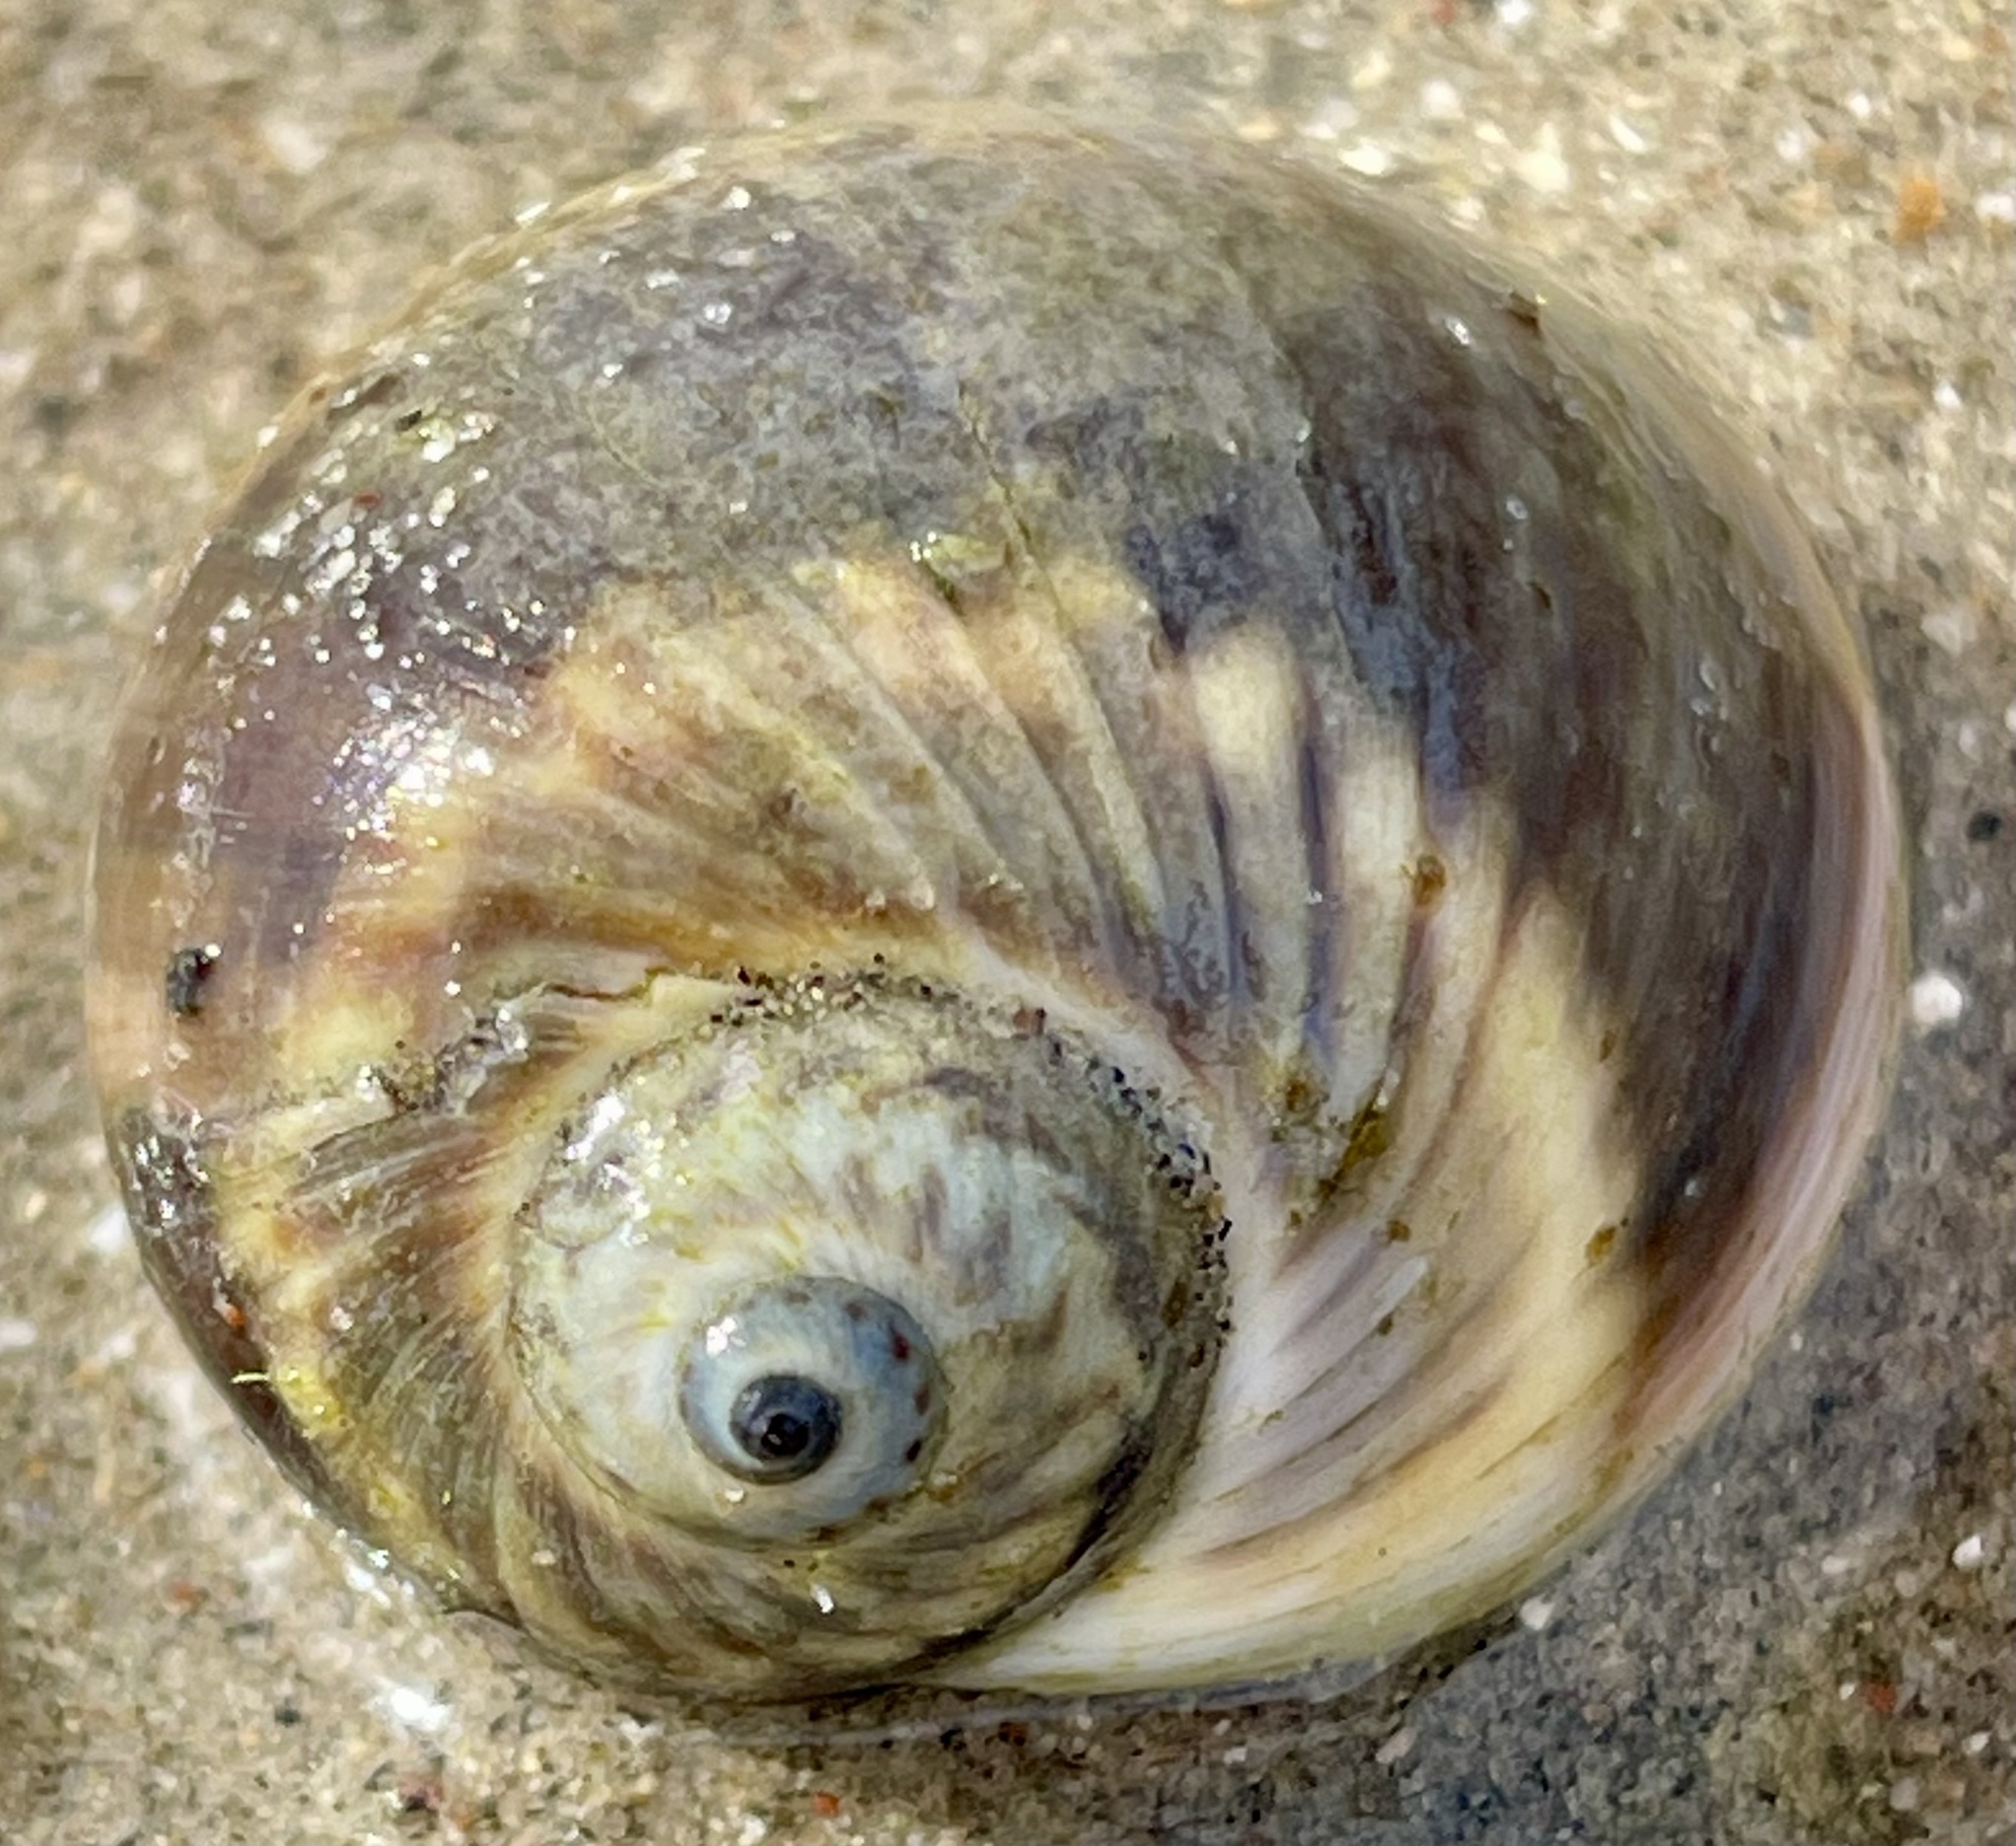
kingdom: Animalia
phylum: Mollusca
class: Gastropoda
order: Littorinimorpha
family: Naticidae
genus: Notocochlis
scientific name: Notocochlis chemnitzii
